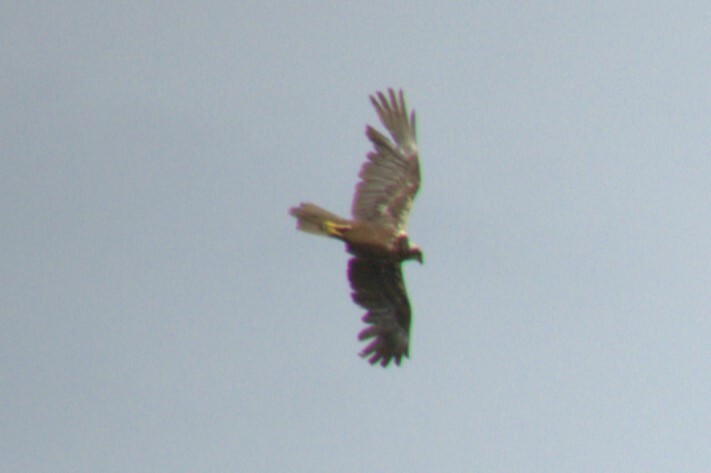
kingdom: Animalia
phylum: Chordata
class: Aves
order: Accipitriformes
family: Accipitridae
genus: Circus
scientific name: Circus aeruginosus
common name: Western marsh harrier
